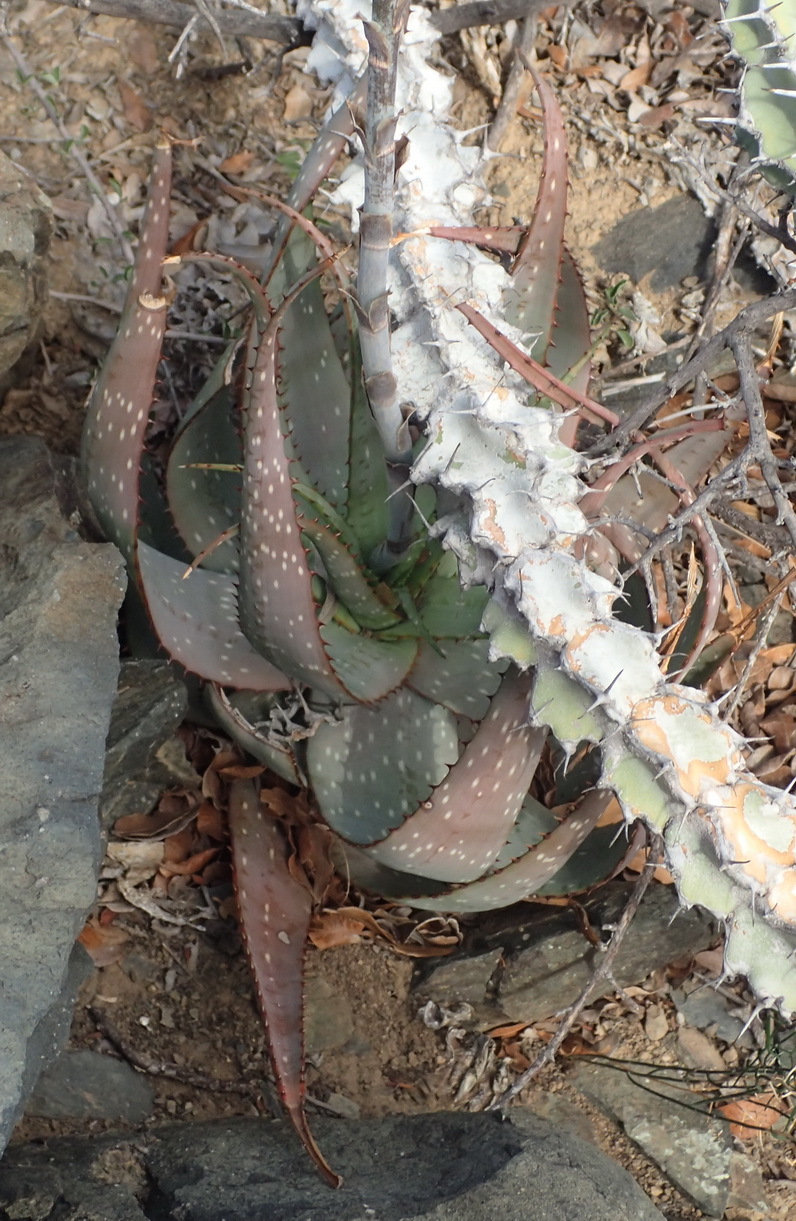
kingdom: Plantae
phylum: Tracheophyta
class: Liliopsida
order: Asparagales
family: Asphodelaceae
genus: Aloe
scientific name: Aloe microstigma
